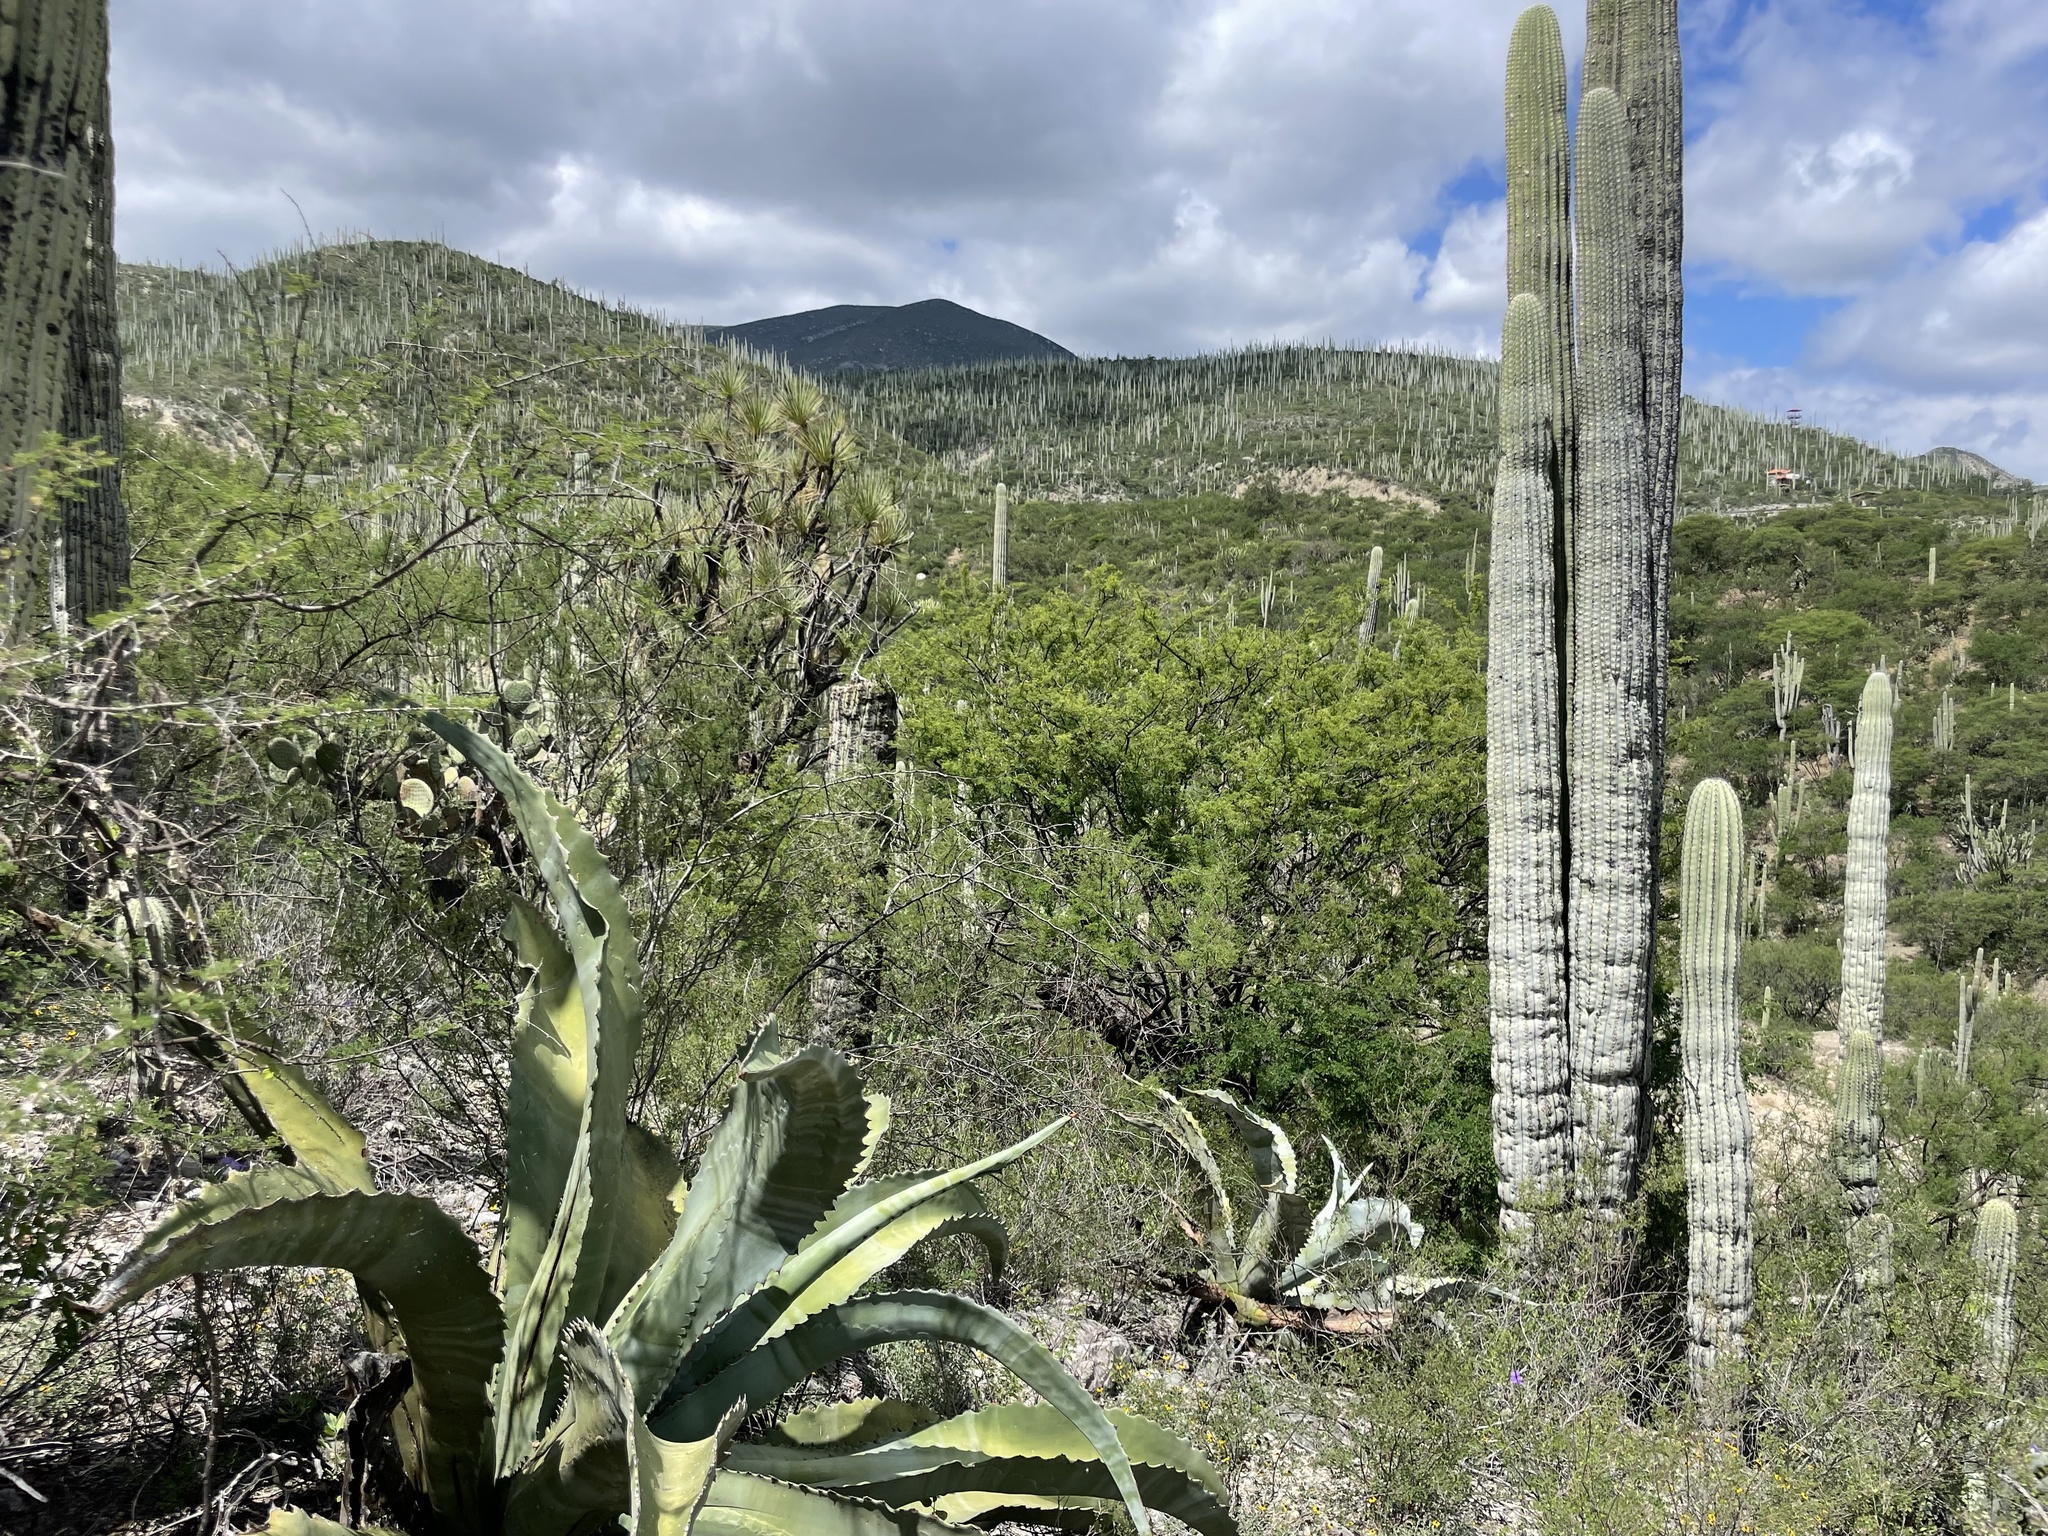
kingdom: Plantae
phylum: Tracheophyta
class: Liliopsida
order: Asparagales
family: Asparagaceae
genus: Agave
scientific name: Agave marmorata
